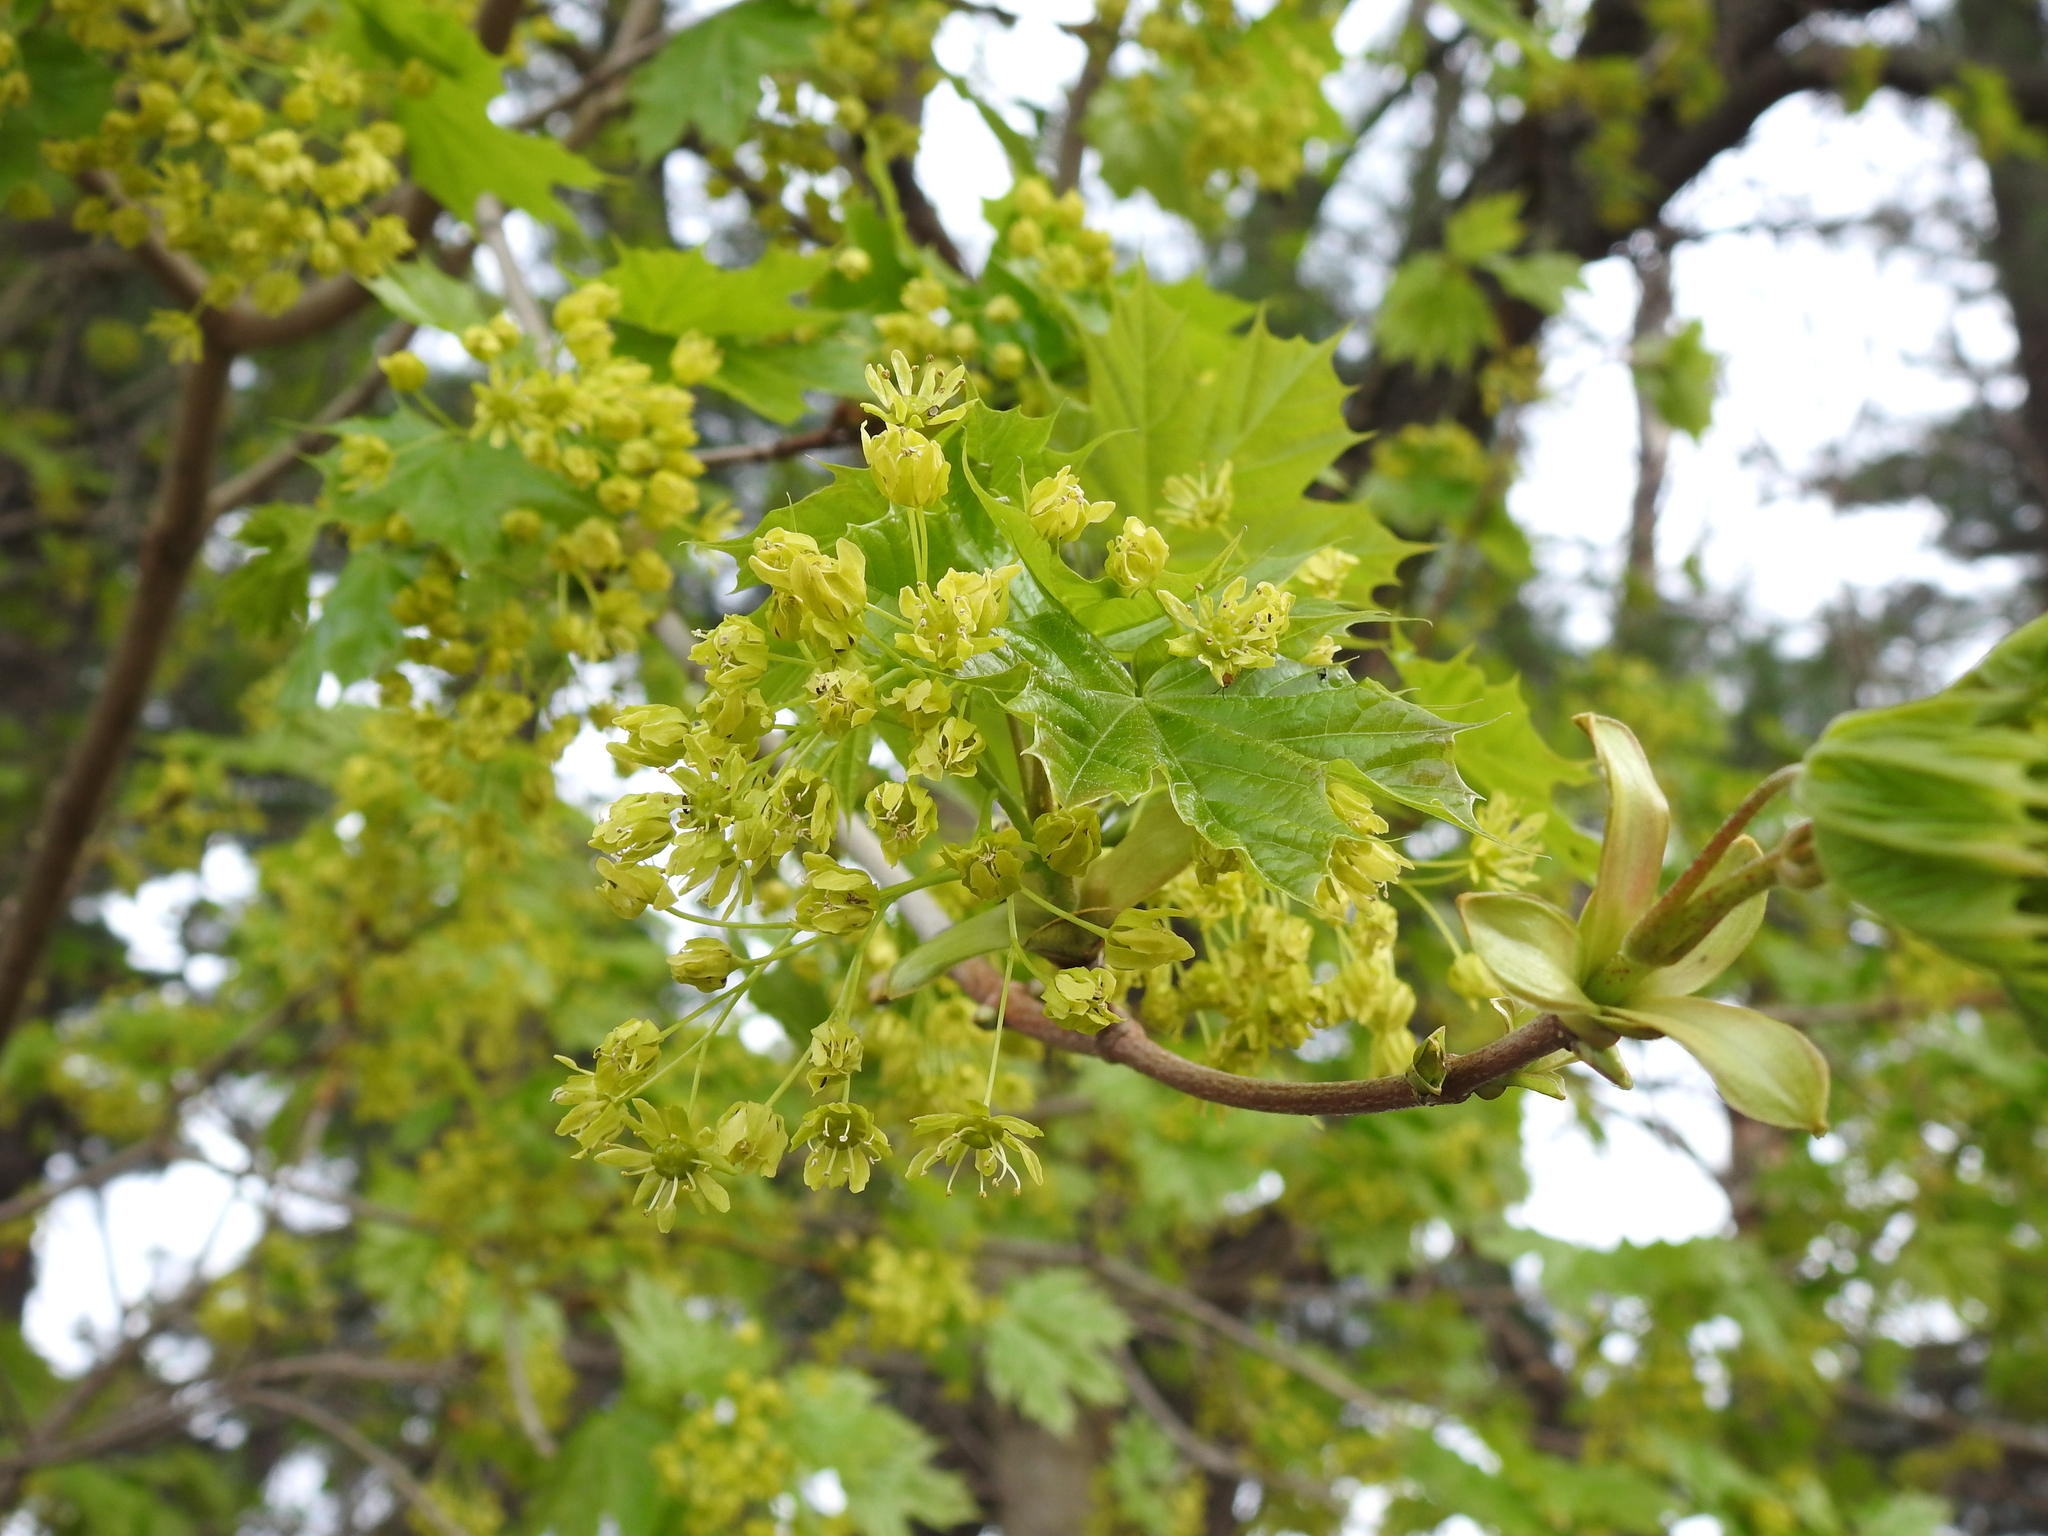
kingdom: Plantae
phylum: Tracheophyta
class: Magnoliopsida
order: Sapindales
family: Sapindaceae
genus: Acer
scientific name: Acer platanoides
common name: Norway maple
